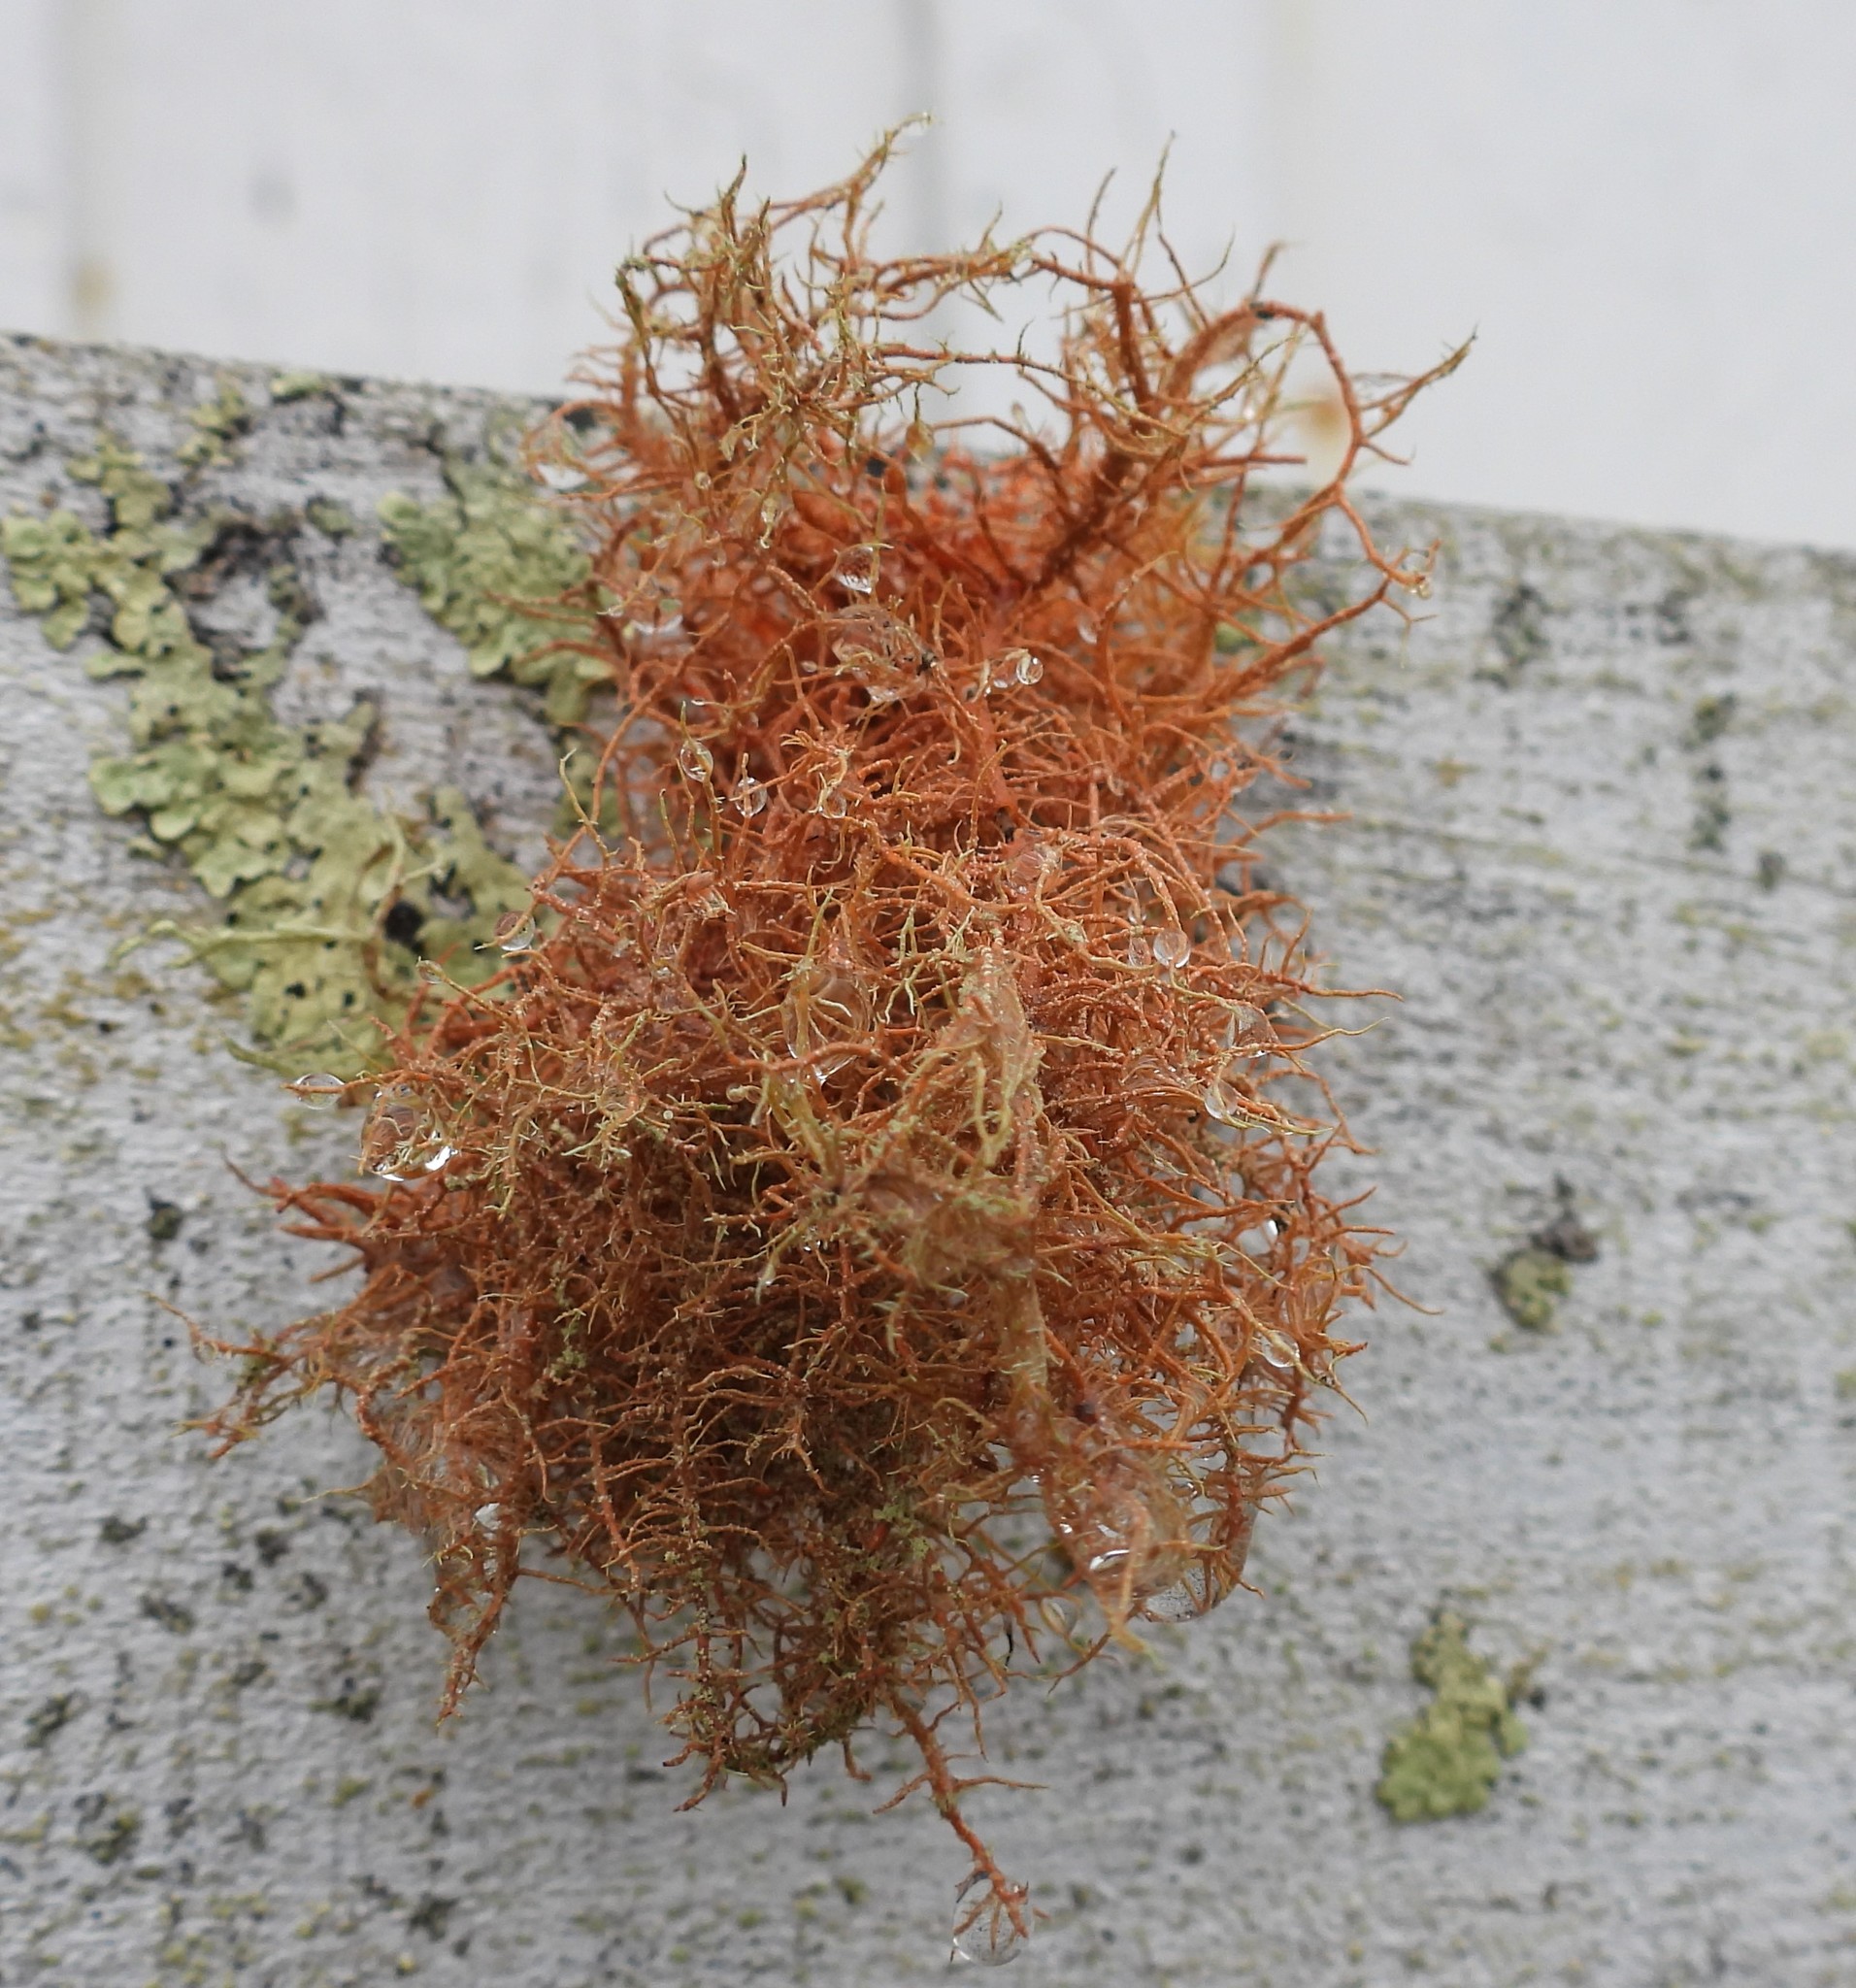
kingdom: Fungi
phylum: Ascomycota
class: Lecanoromycetes
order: Lecanorales
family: Parmeliaceae
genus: Usnea
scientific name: Usnea rubicunda
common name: Red beard lichen
